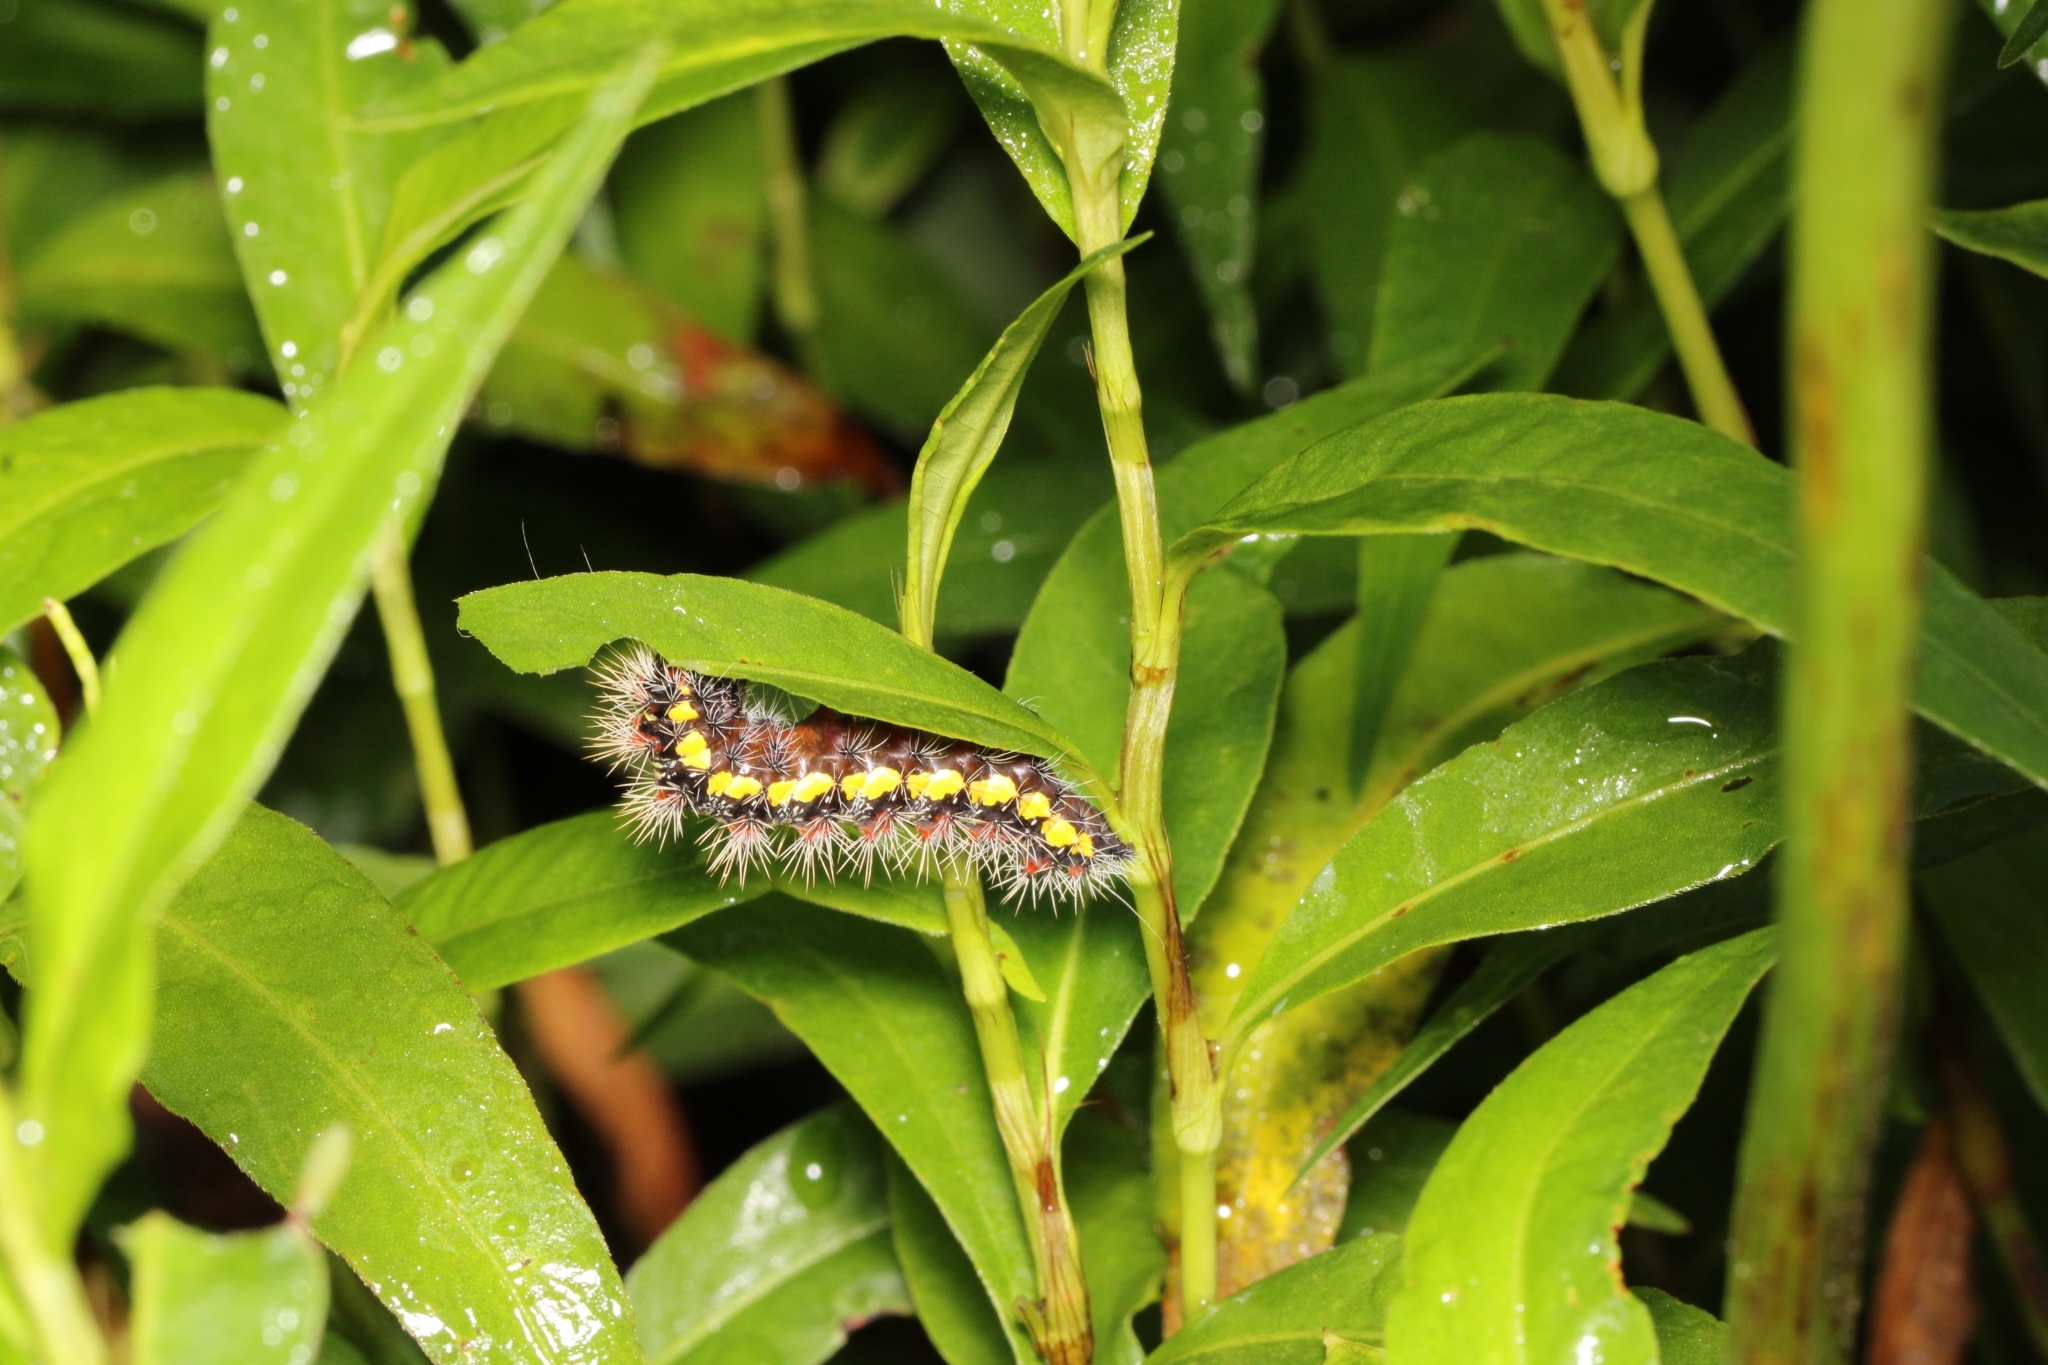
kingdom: Animalia
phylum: Arthropoda
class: Insecta
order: Lepidoptera
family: Noctuidae
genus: Acronicta
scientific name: Acronicta oblinita
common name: Smeared dagger
